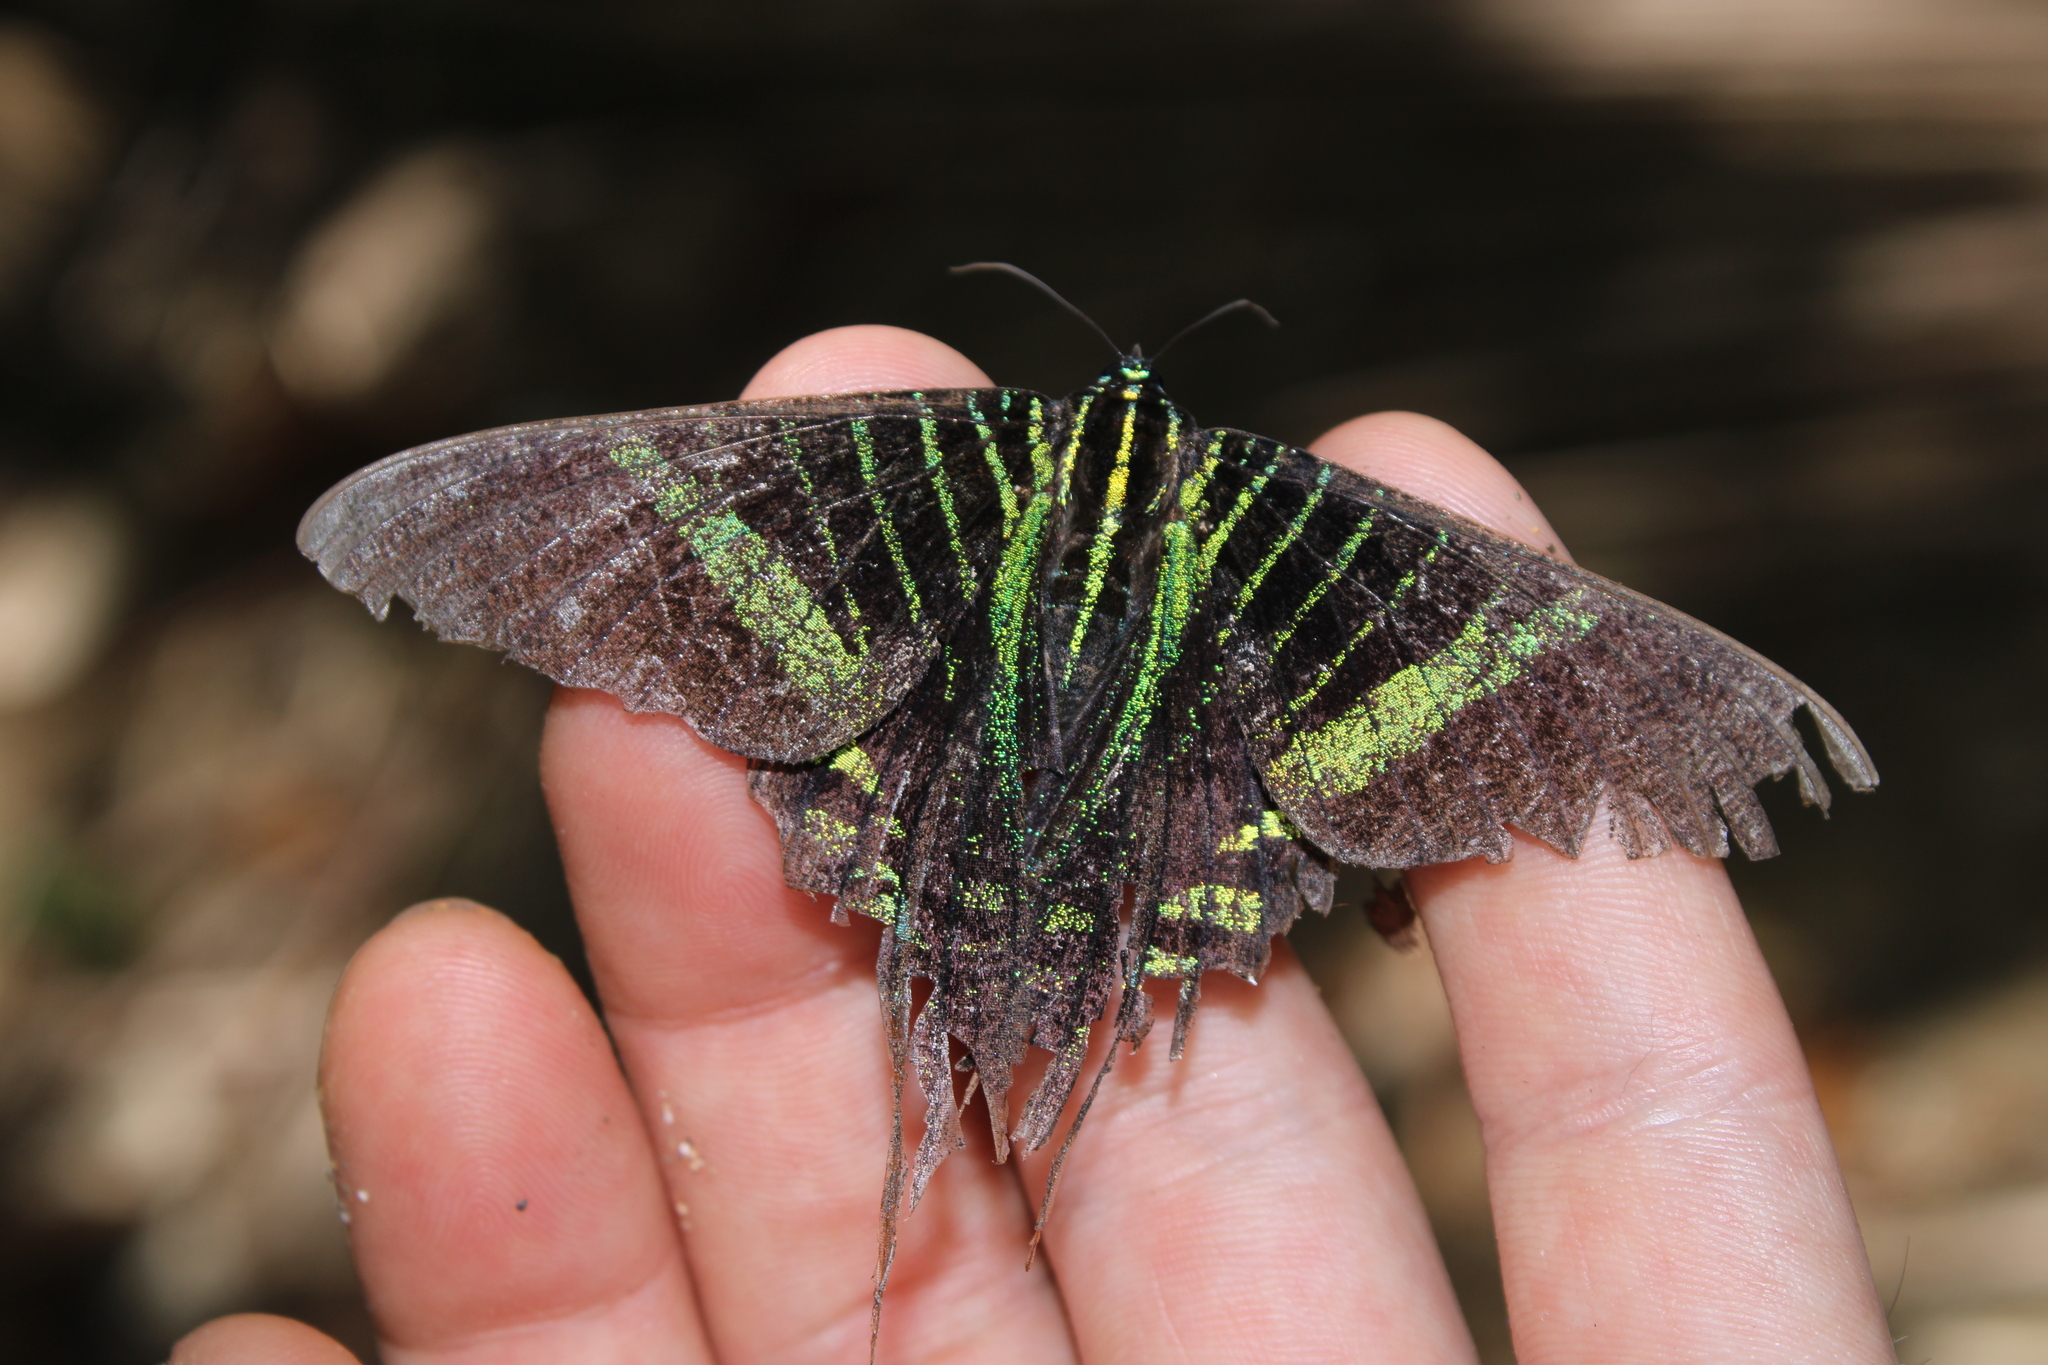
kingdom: Animalia
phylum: Arthropoda
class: Insecta
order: Lepidoptera
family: Uraniidae
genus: Urania
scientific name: Urania fulgens
